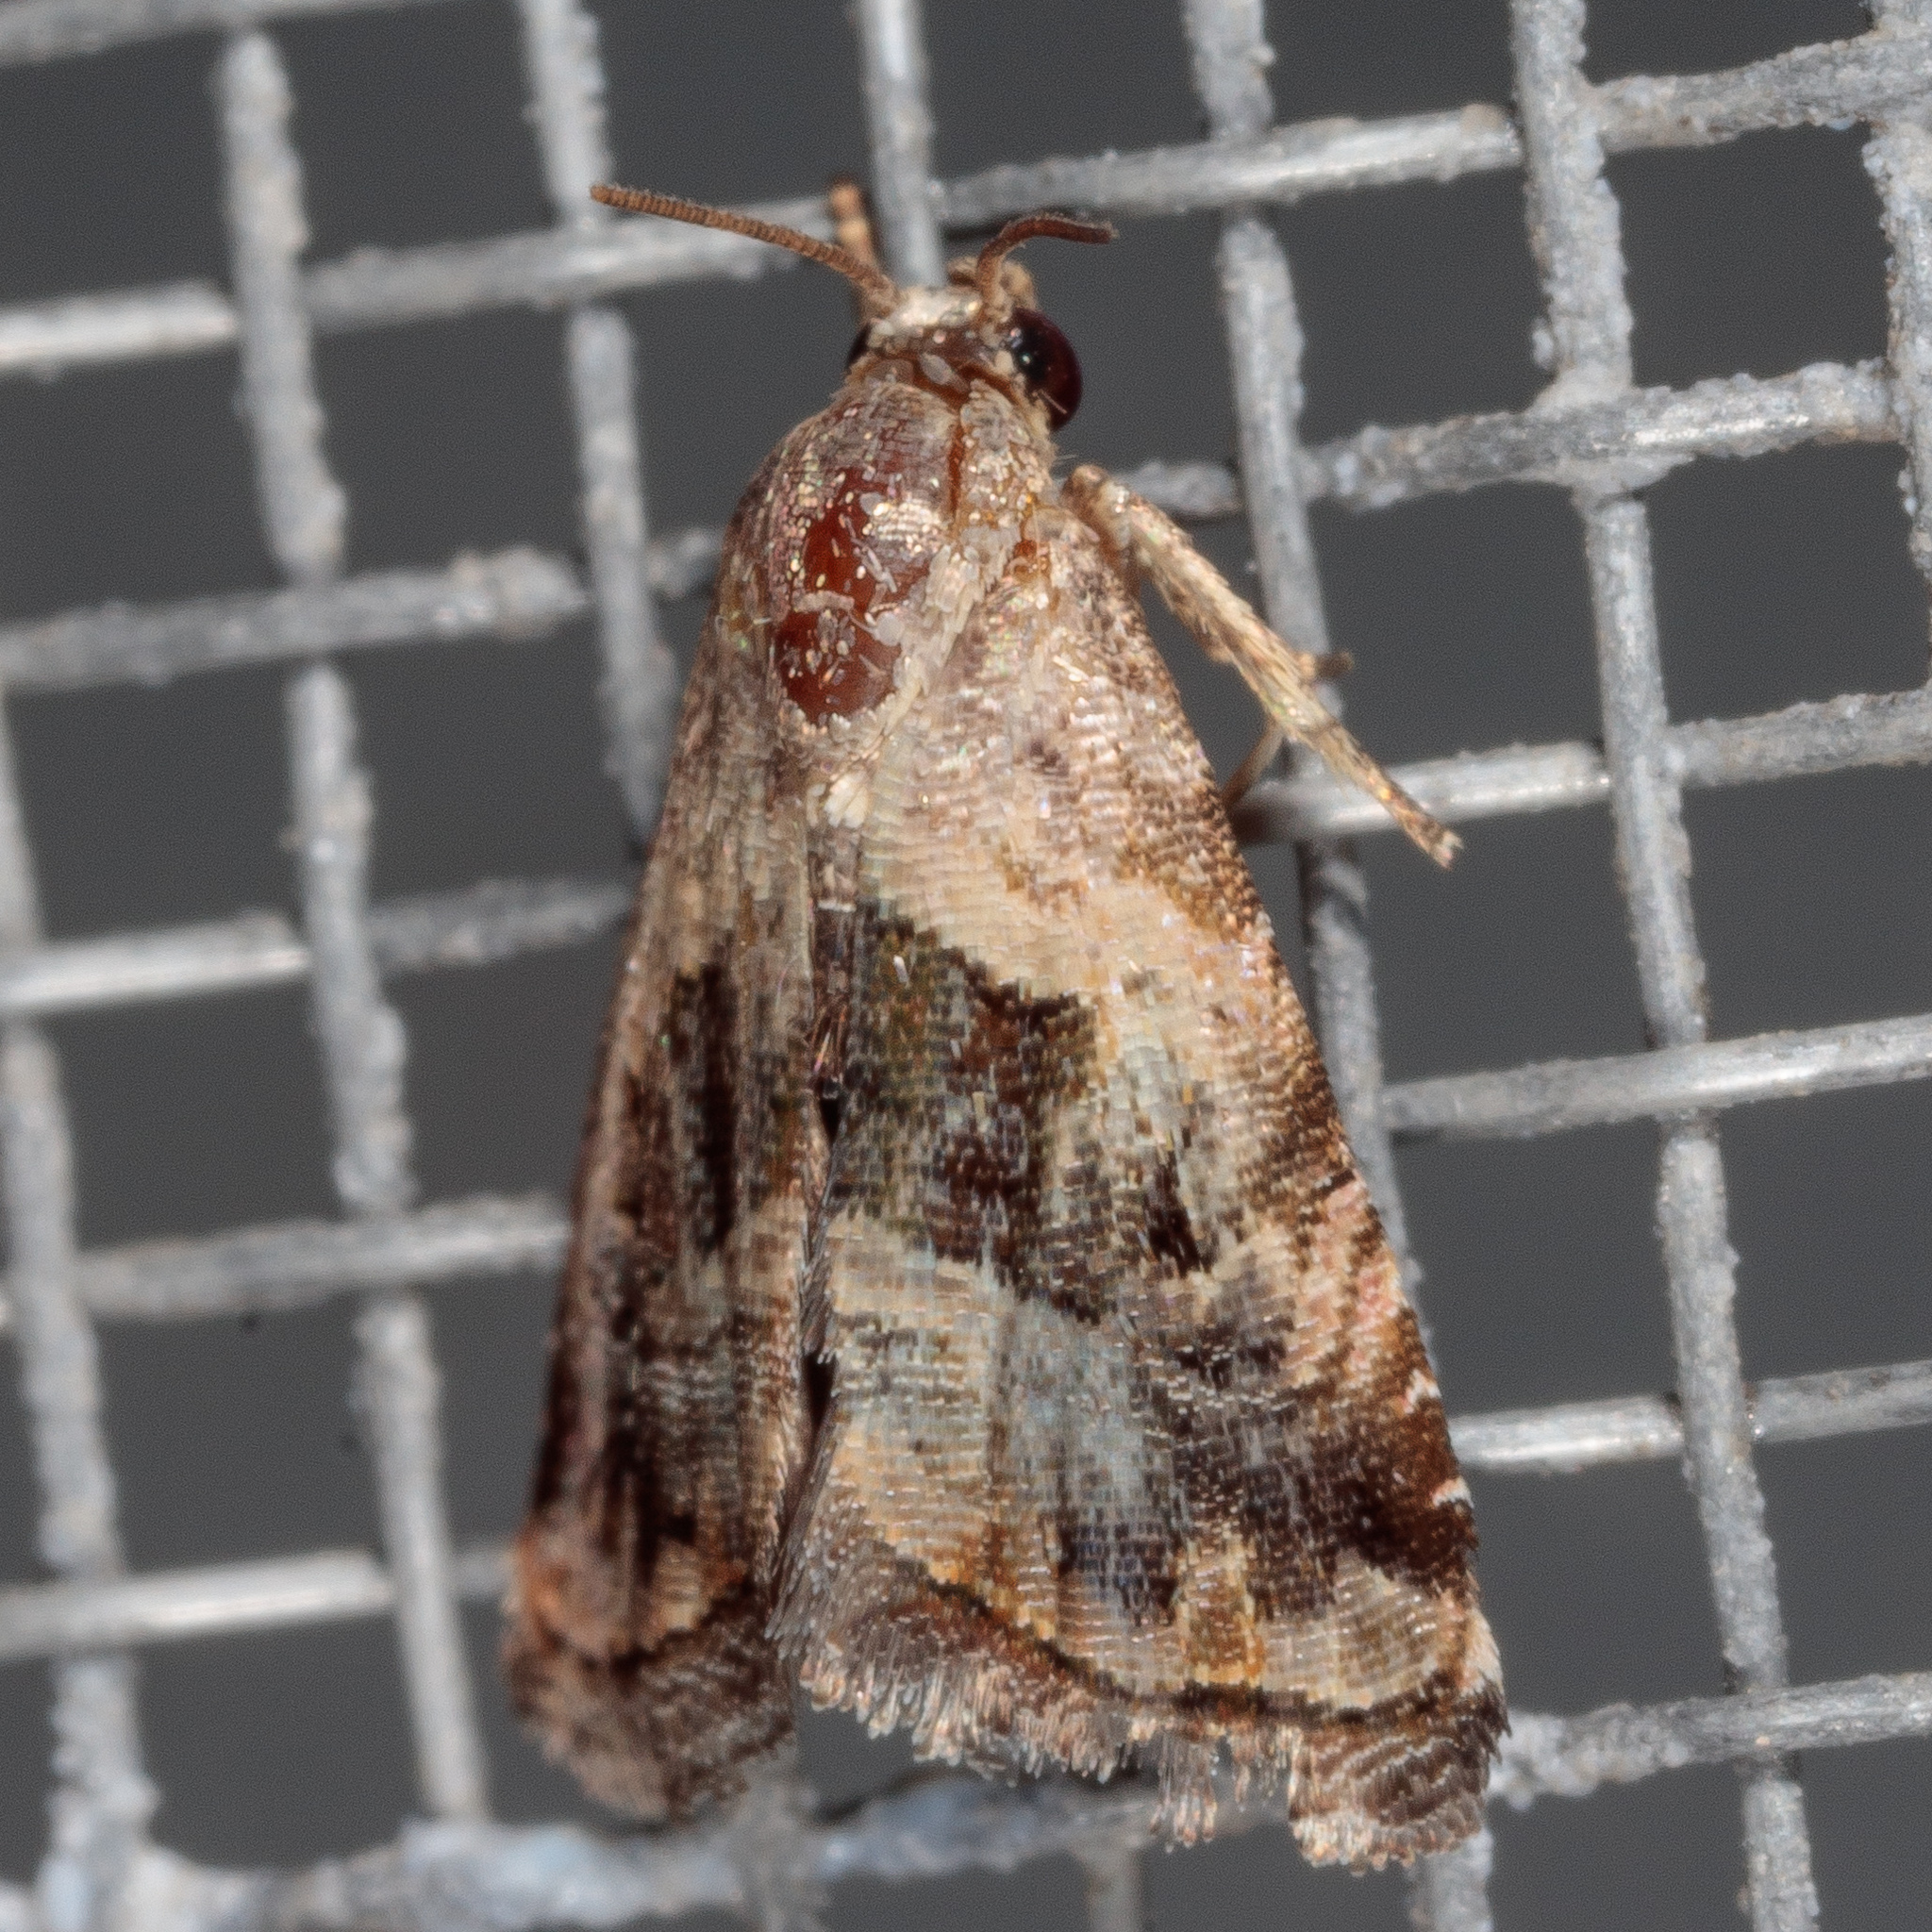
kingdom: Animalia
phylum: Arthropoda
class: Insecta
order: Lepidoptera
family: Noctuidae
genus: Tripudia
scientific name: Tripudia quadrifera
